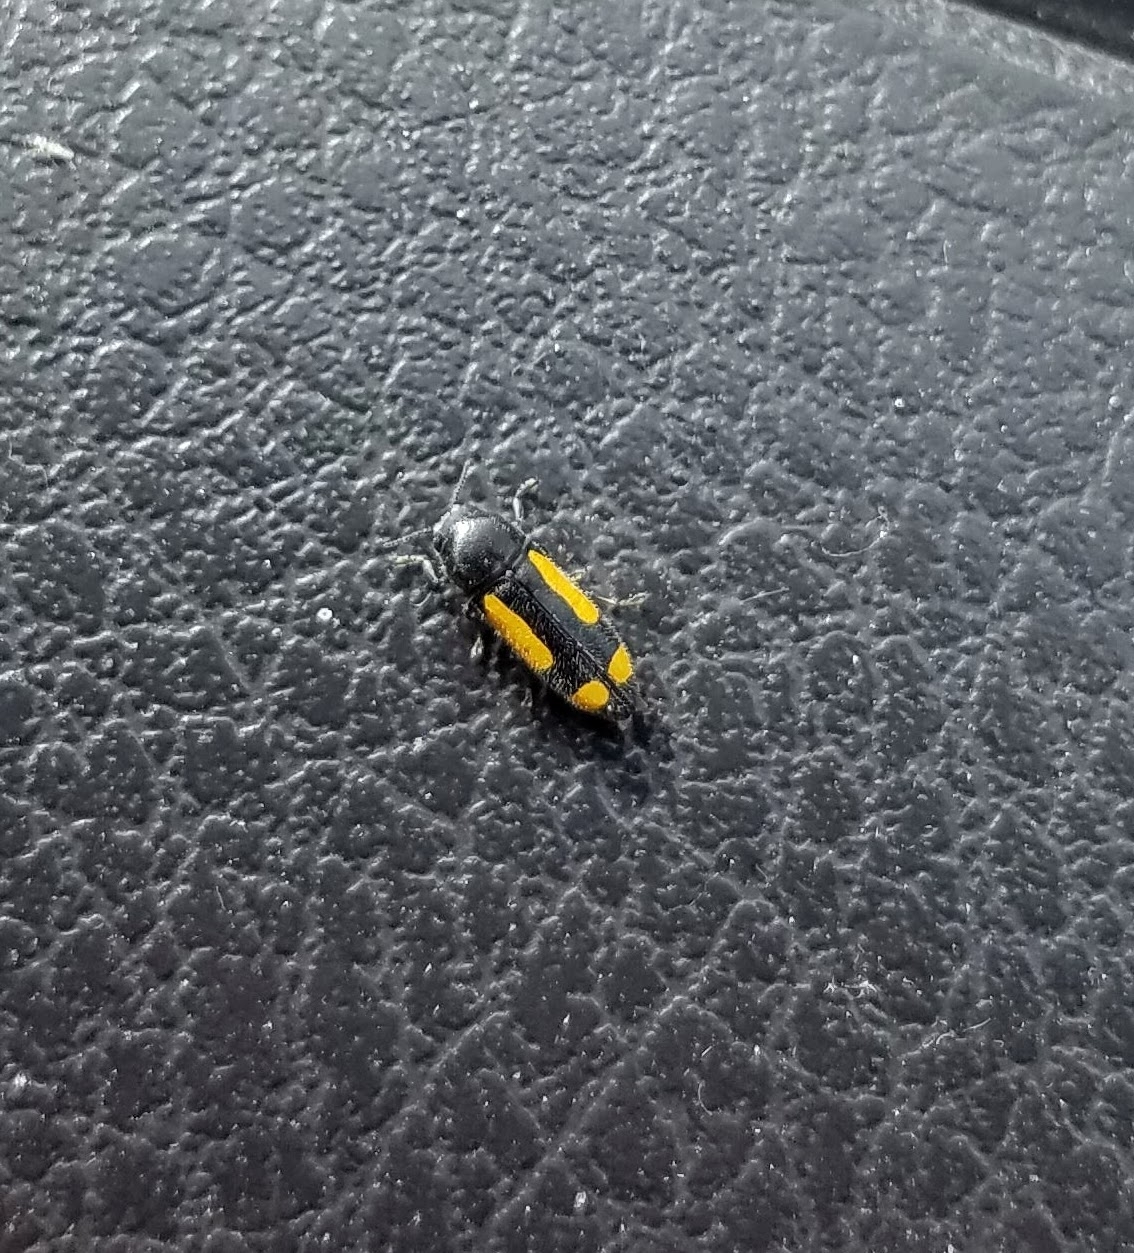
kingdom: Animalia
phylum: Arthropoda
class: Insecta
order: Coleoptera
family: Buprestidae
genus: Ptosima
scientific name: Ptosima gibbicollis
